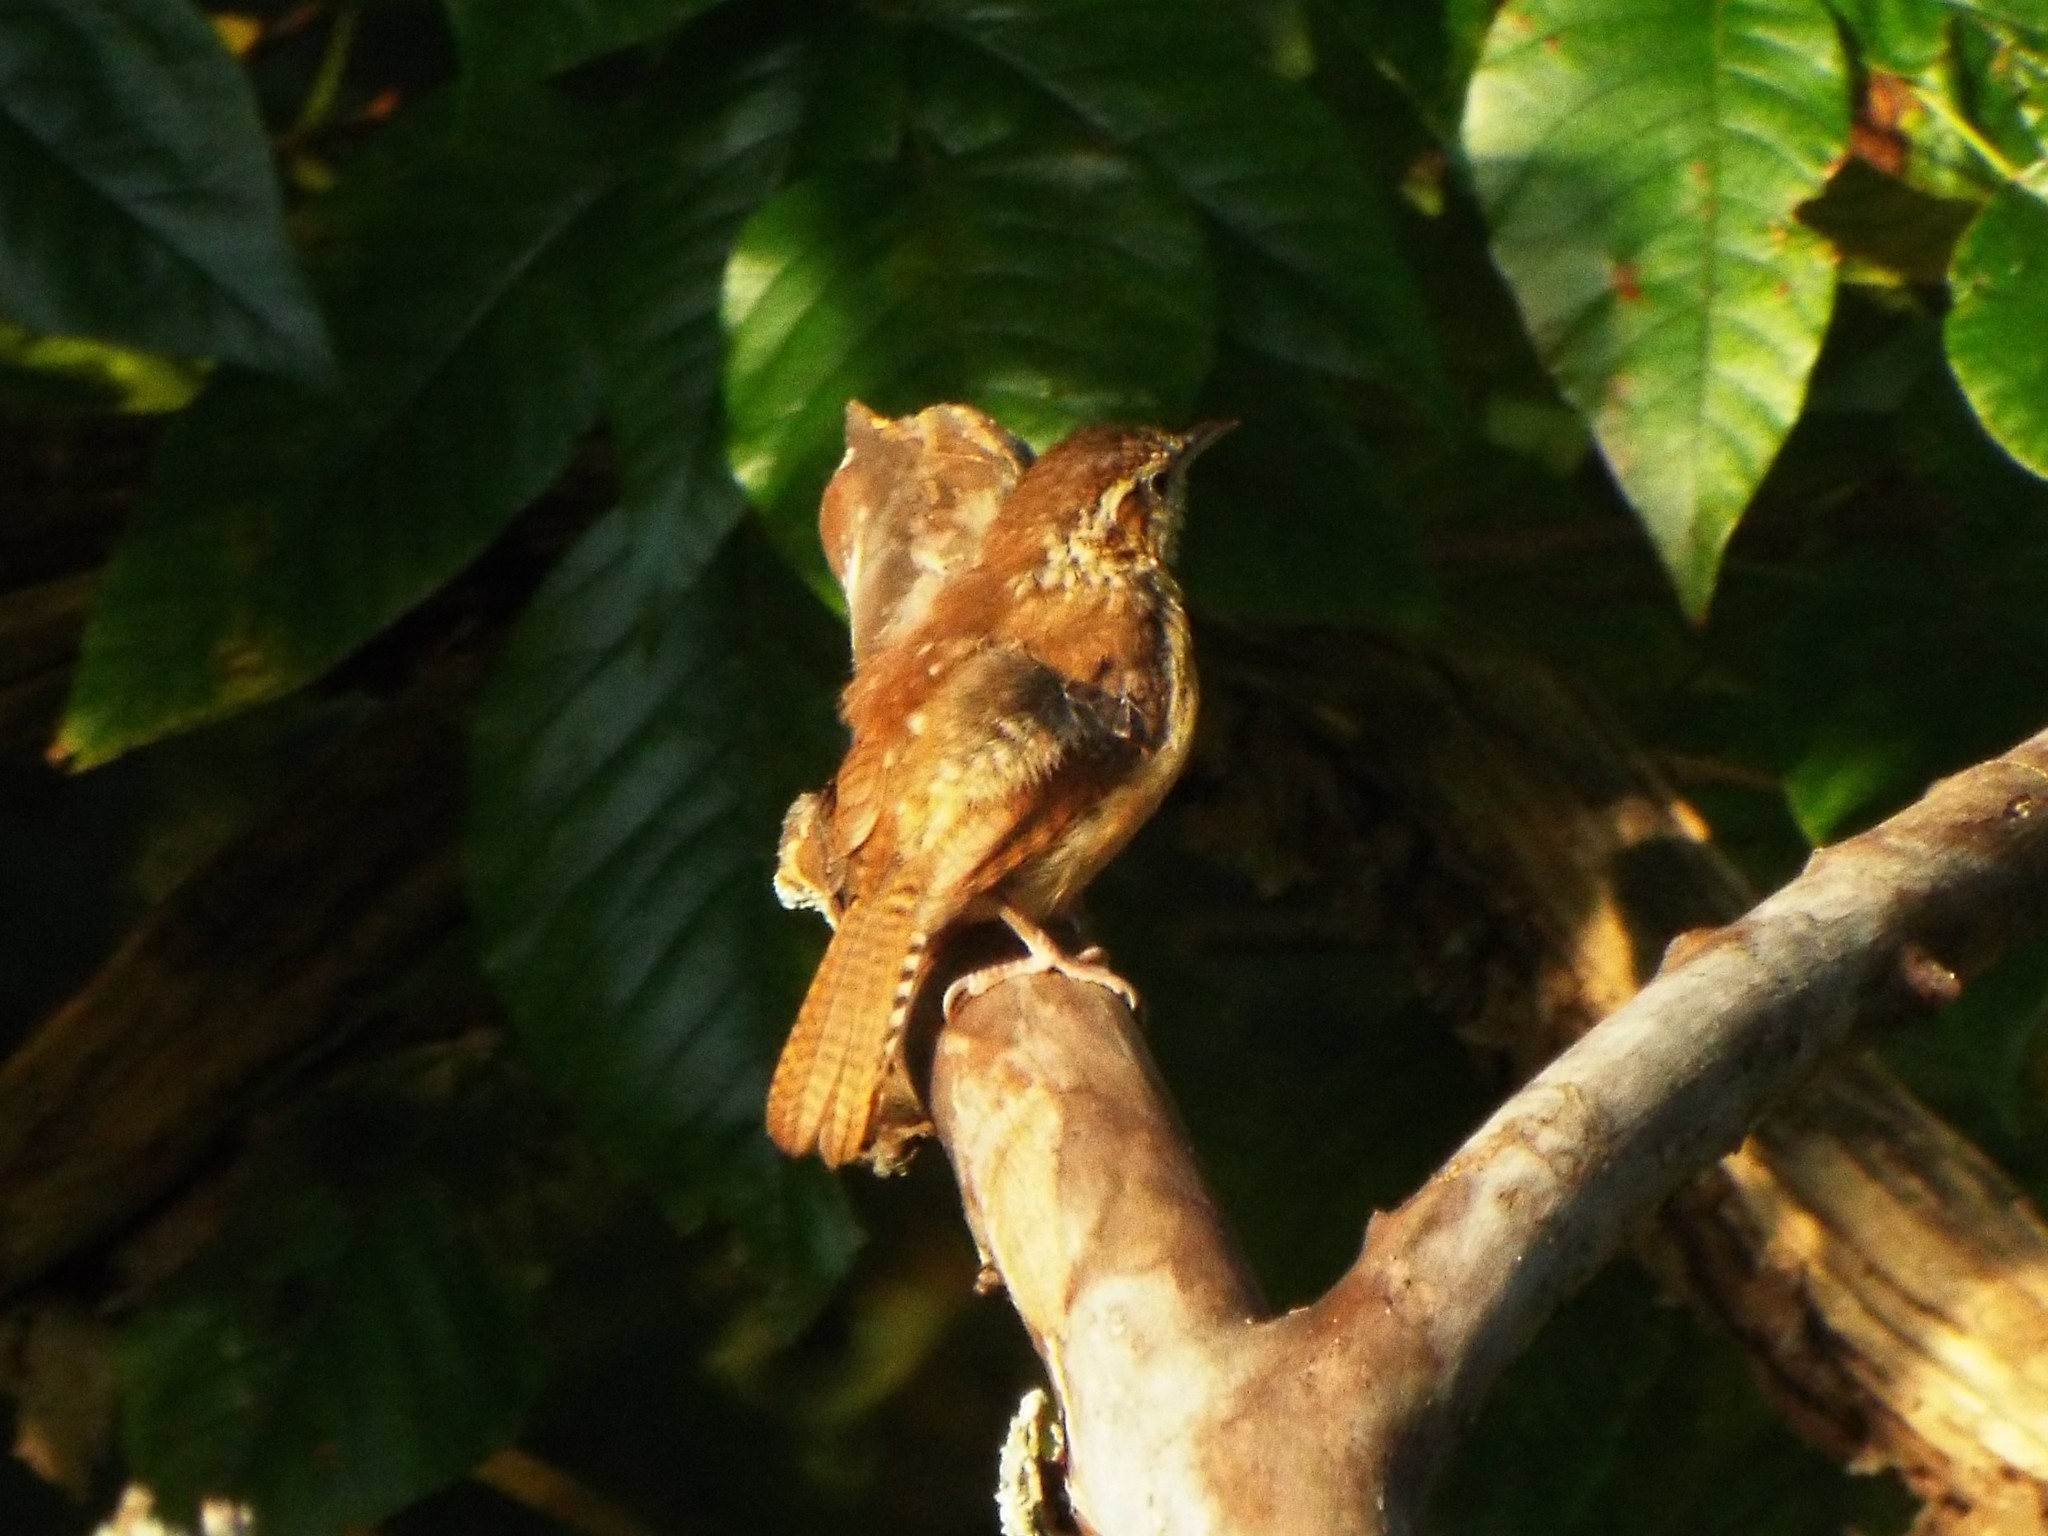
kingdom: Animalia
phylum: Chordata
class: Aves
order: Passeriformes
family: Troglodytidae
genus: Thryothorus
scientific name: Thryothorus ludovicianus
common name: Carolina wren
